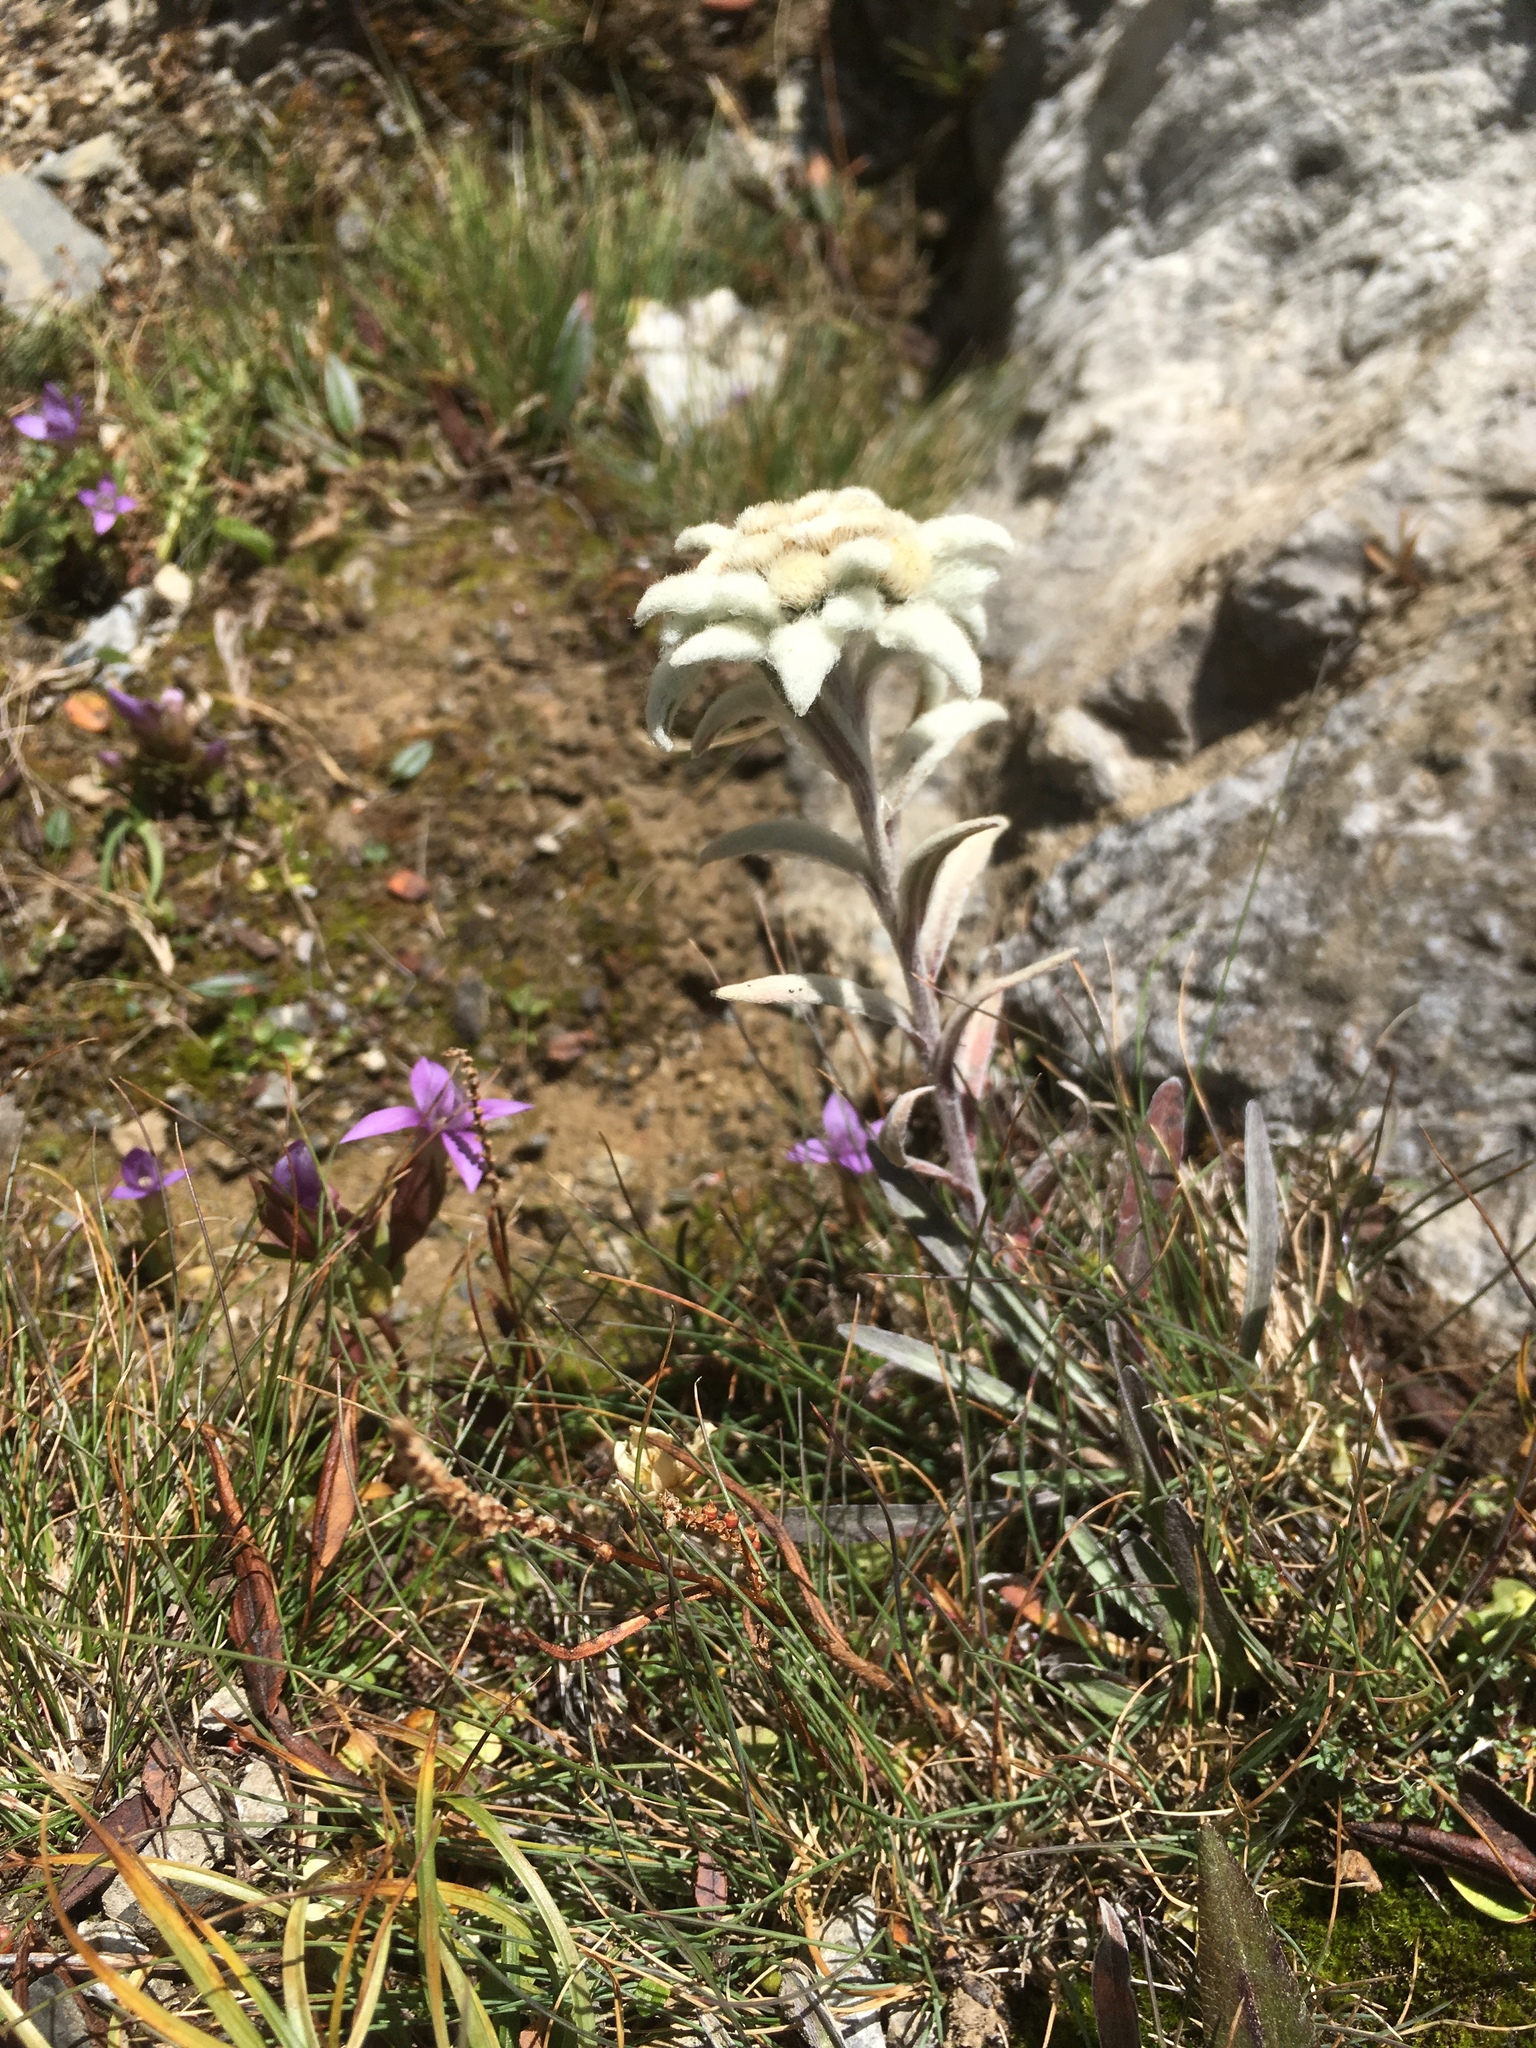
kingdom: Plantae
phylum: Tracheophyta
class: Magnoliopsida
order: Asterales
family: Asteraceae
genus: Leontopodium
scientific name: Leontopodium nivale
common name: Edelweiss
